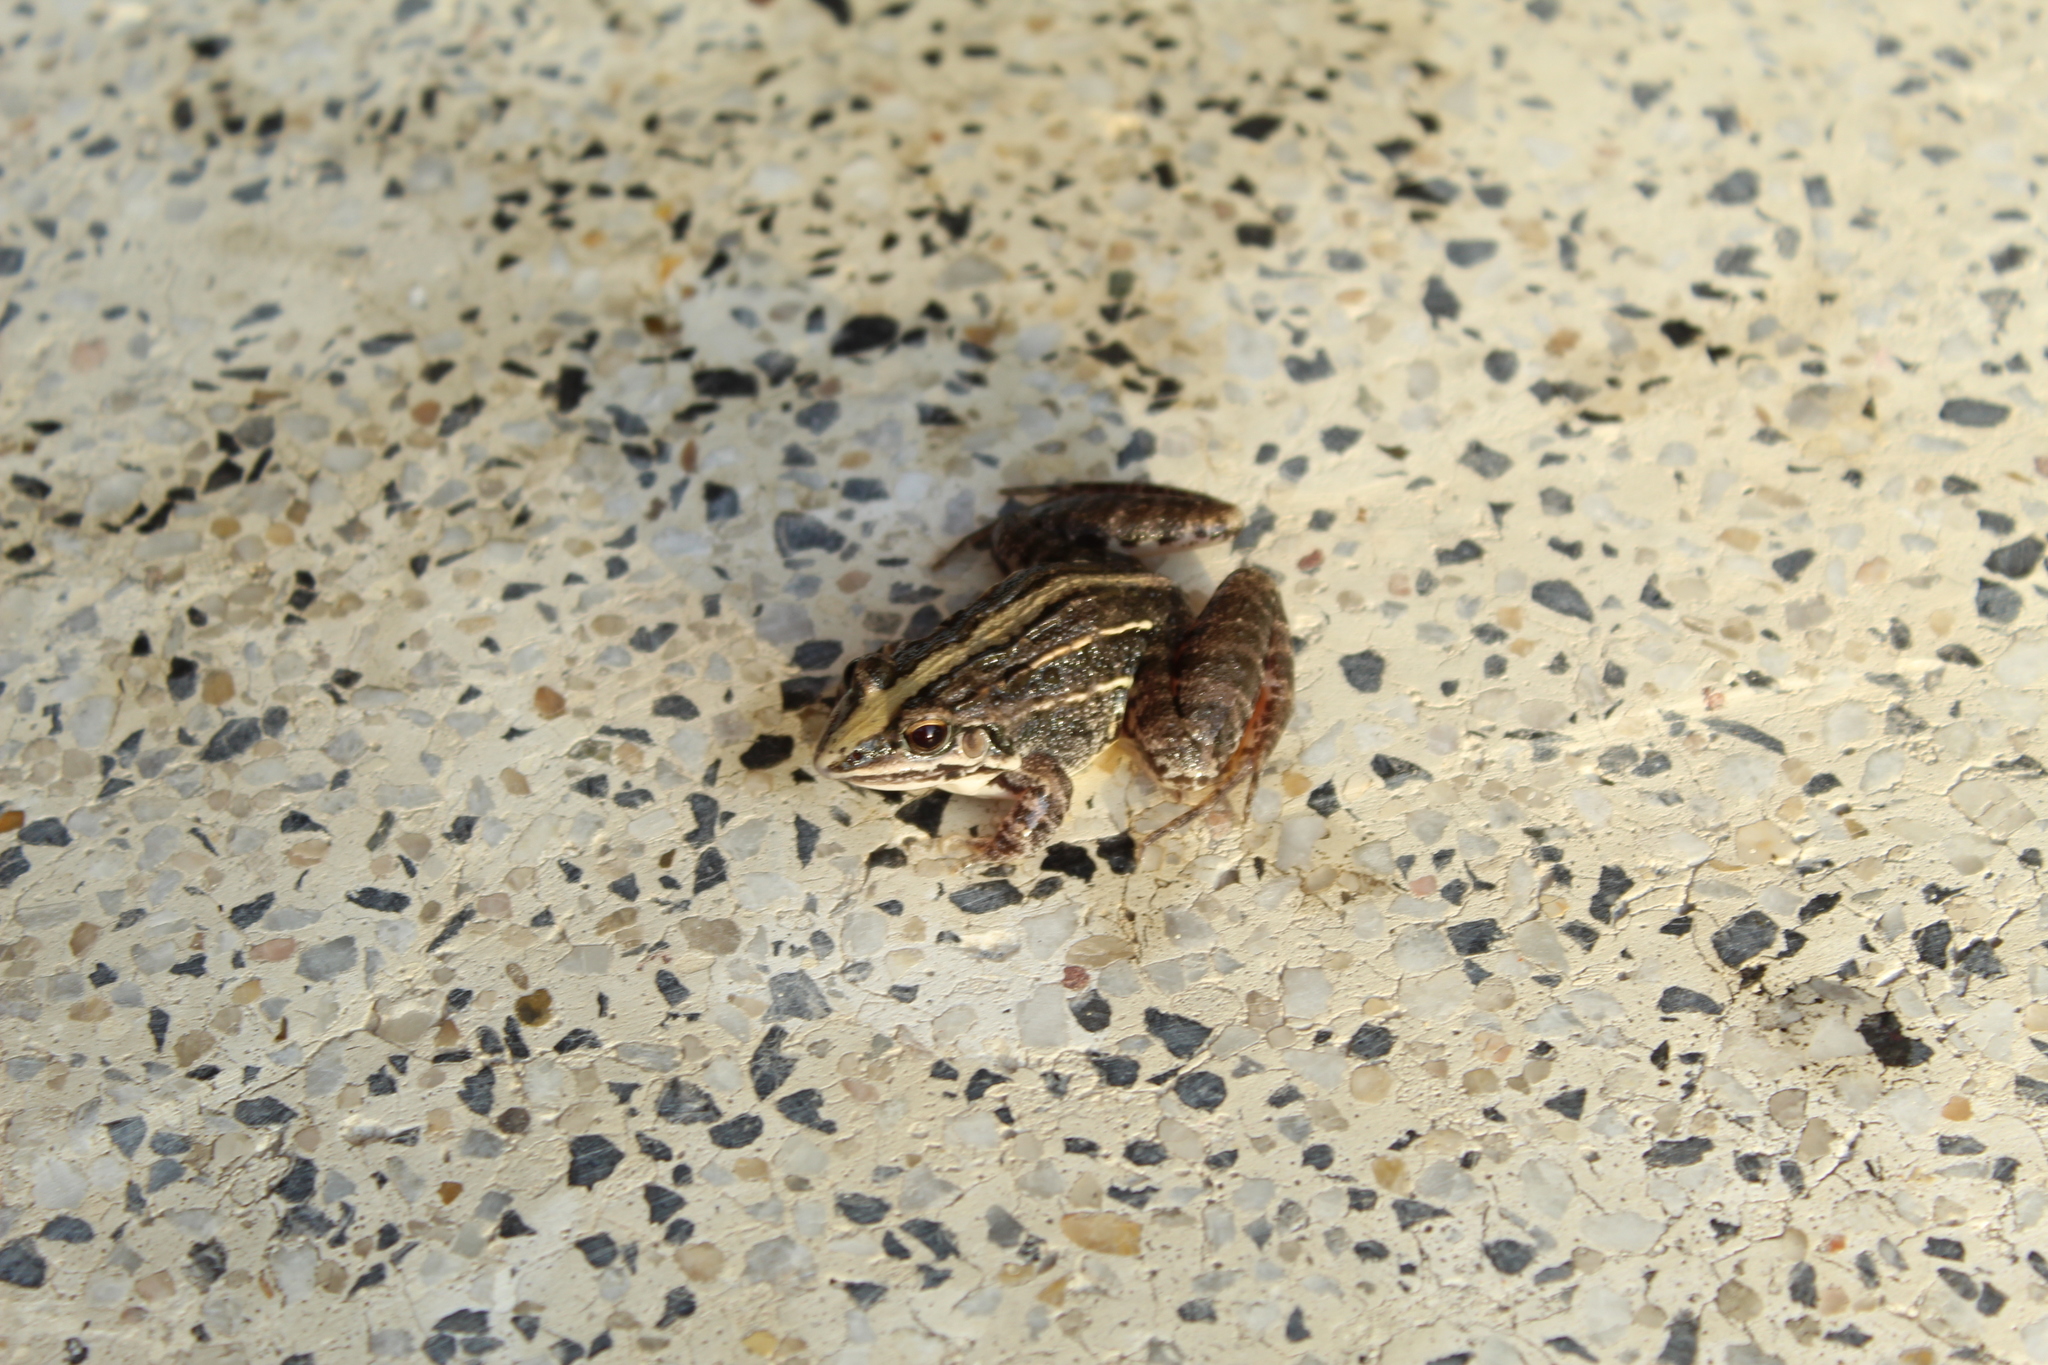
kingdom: Animalia
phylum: Chordata
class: Amphibia
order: Anura
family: Leptodactylidae
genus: Leptodactylus
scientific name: Leptodactylus fuscus
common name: Rufous frog
